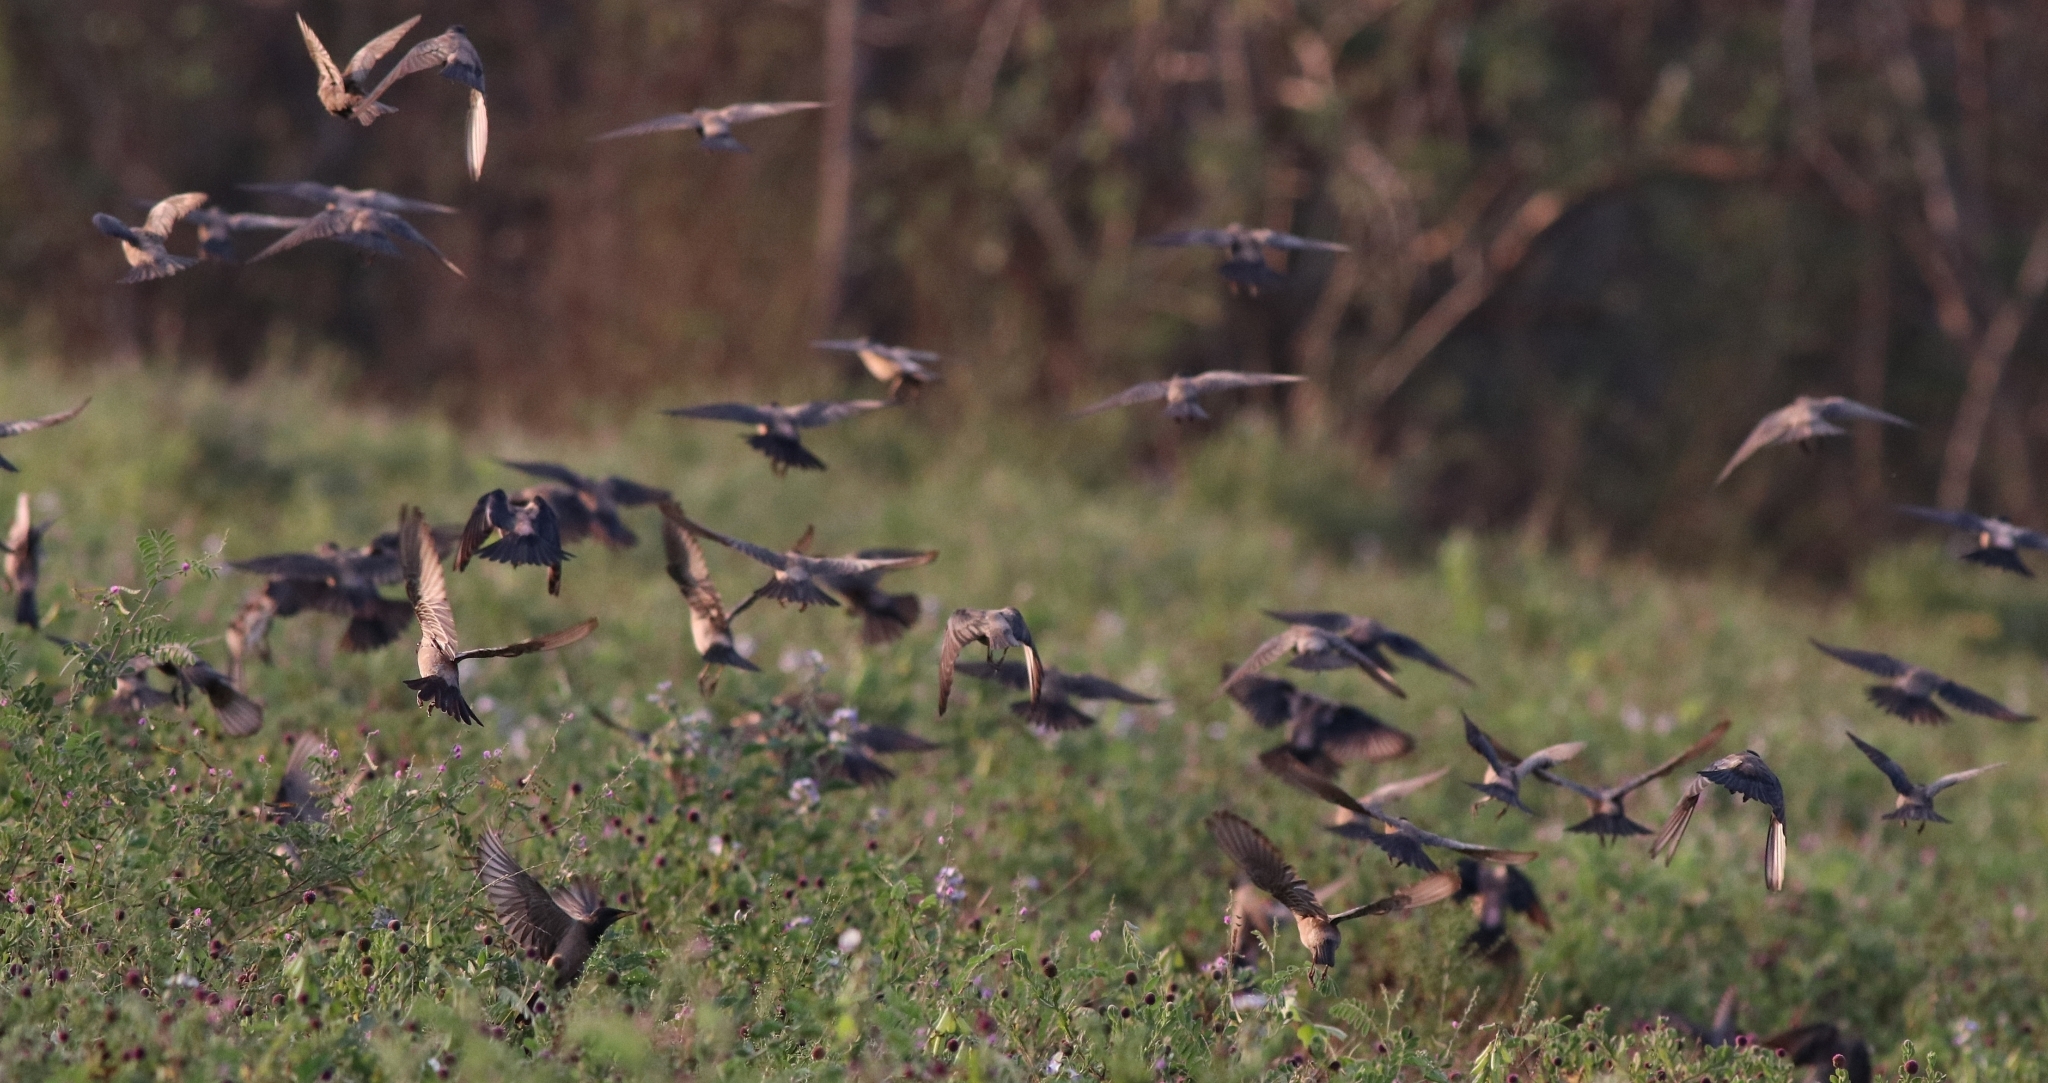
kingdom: Animalia
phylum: Chordata
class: Aves
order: Passeriformes
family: Sturnidae
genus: Pastor
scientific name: Pastor roseus
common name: Rosy starling
